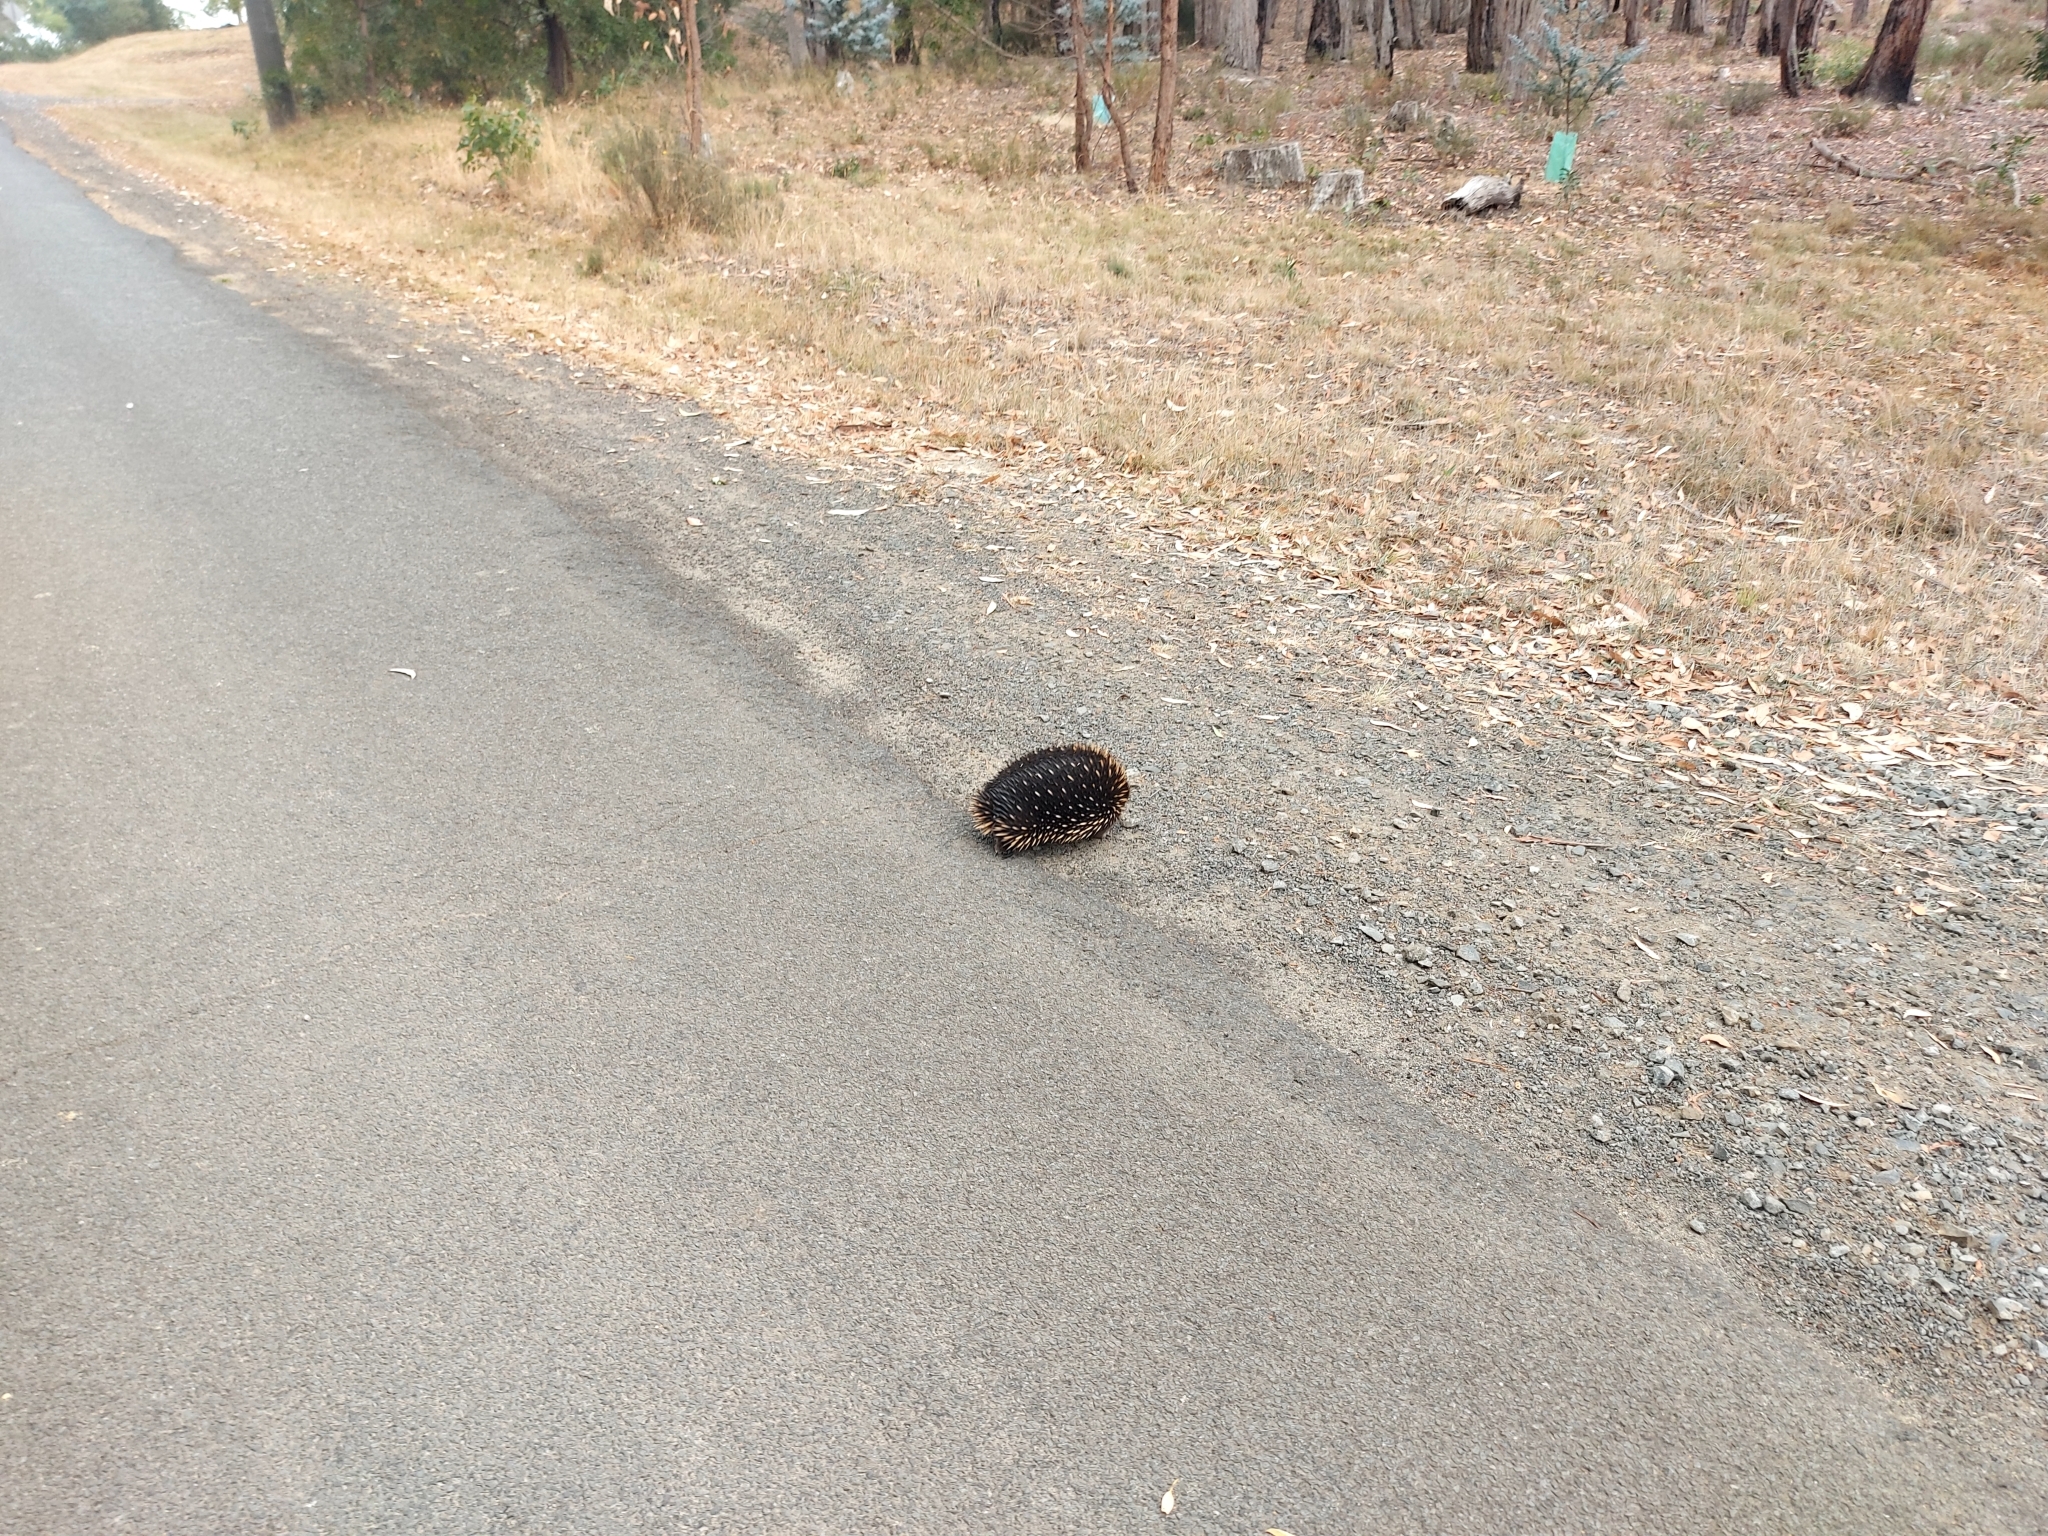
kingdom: Animalia
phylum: Chordata
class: Mammalia
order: Monotremata
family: Tachyglossidae
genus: Tachyglossus
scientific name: Tachyglossus aculeatus
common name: Short-beaked echidna
